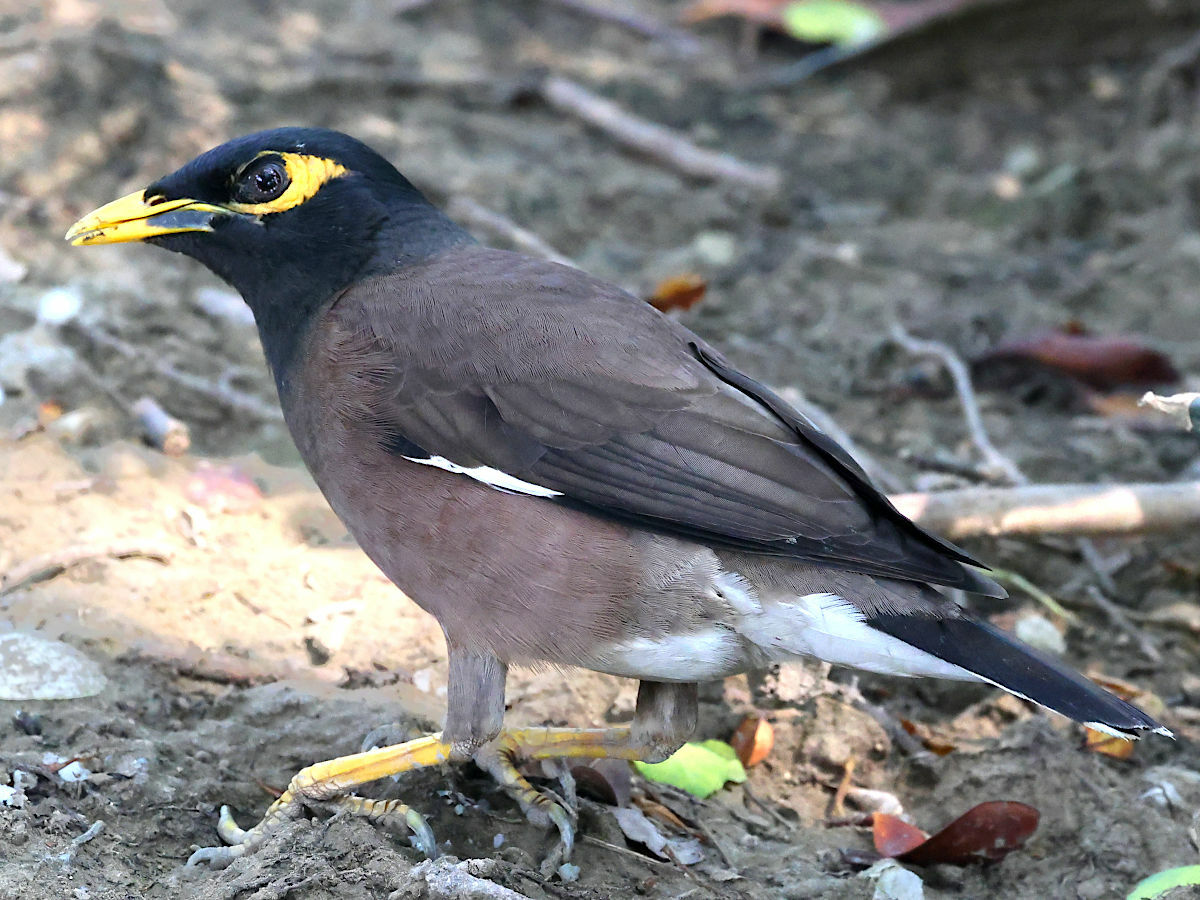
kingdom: Animalia
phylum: Chordata
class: Aves
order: Passeriformes
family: Sturnidae
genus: Acridotheres
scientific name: Acridotheres tristis
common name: Common myna
